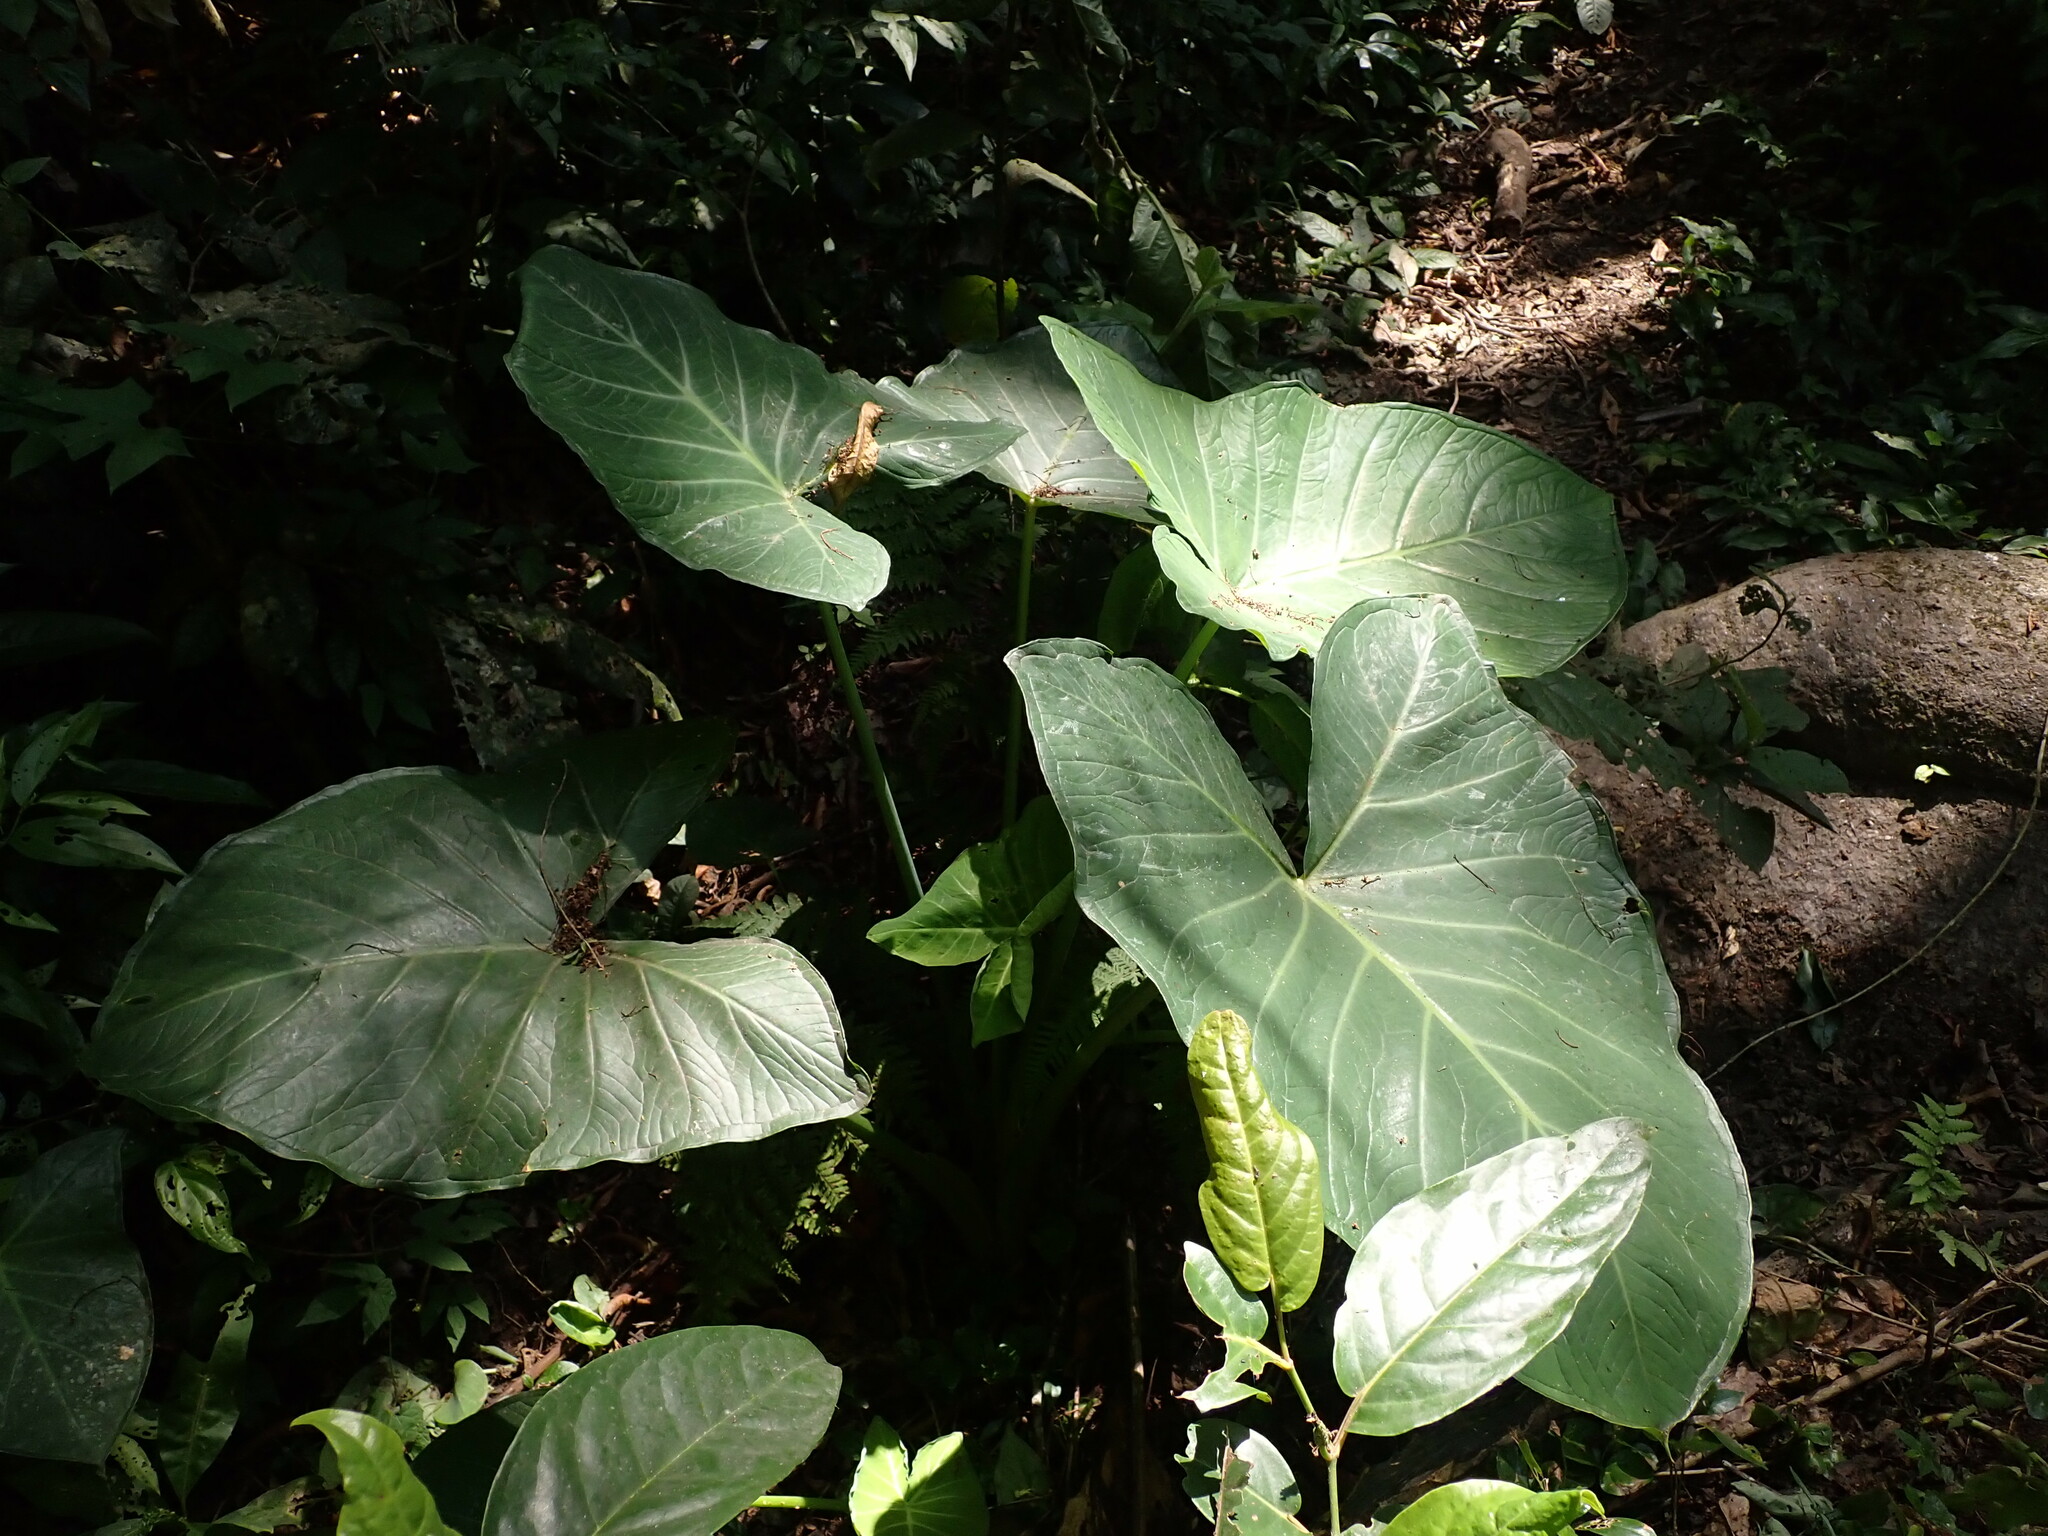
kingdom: Plantae
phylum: Tracheophyta
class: Liliopsida
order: Alismatales
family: Araceae
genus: Xanthosoma
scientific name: Xanthosoma sagittifolium
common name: Arrowleaf elephant's ear
